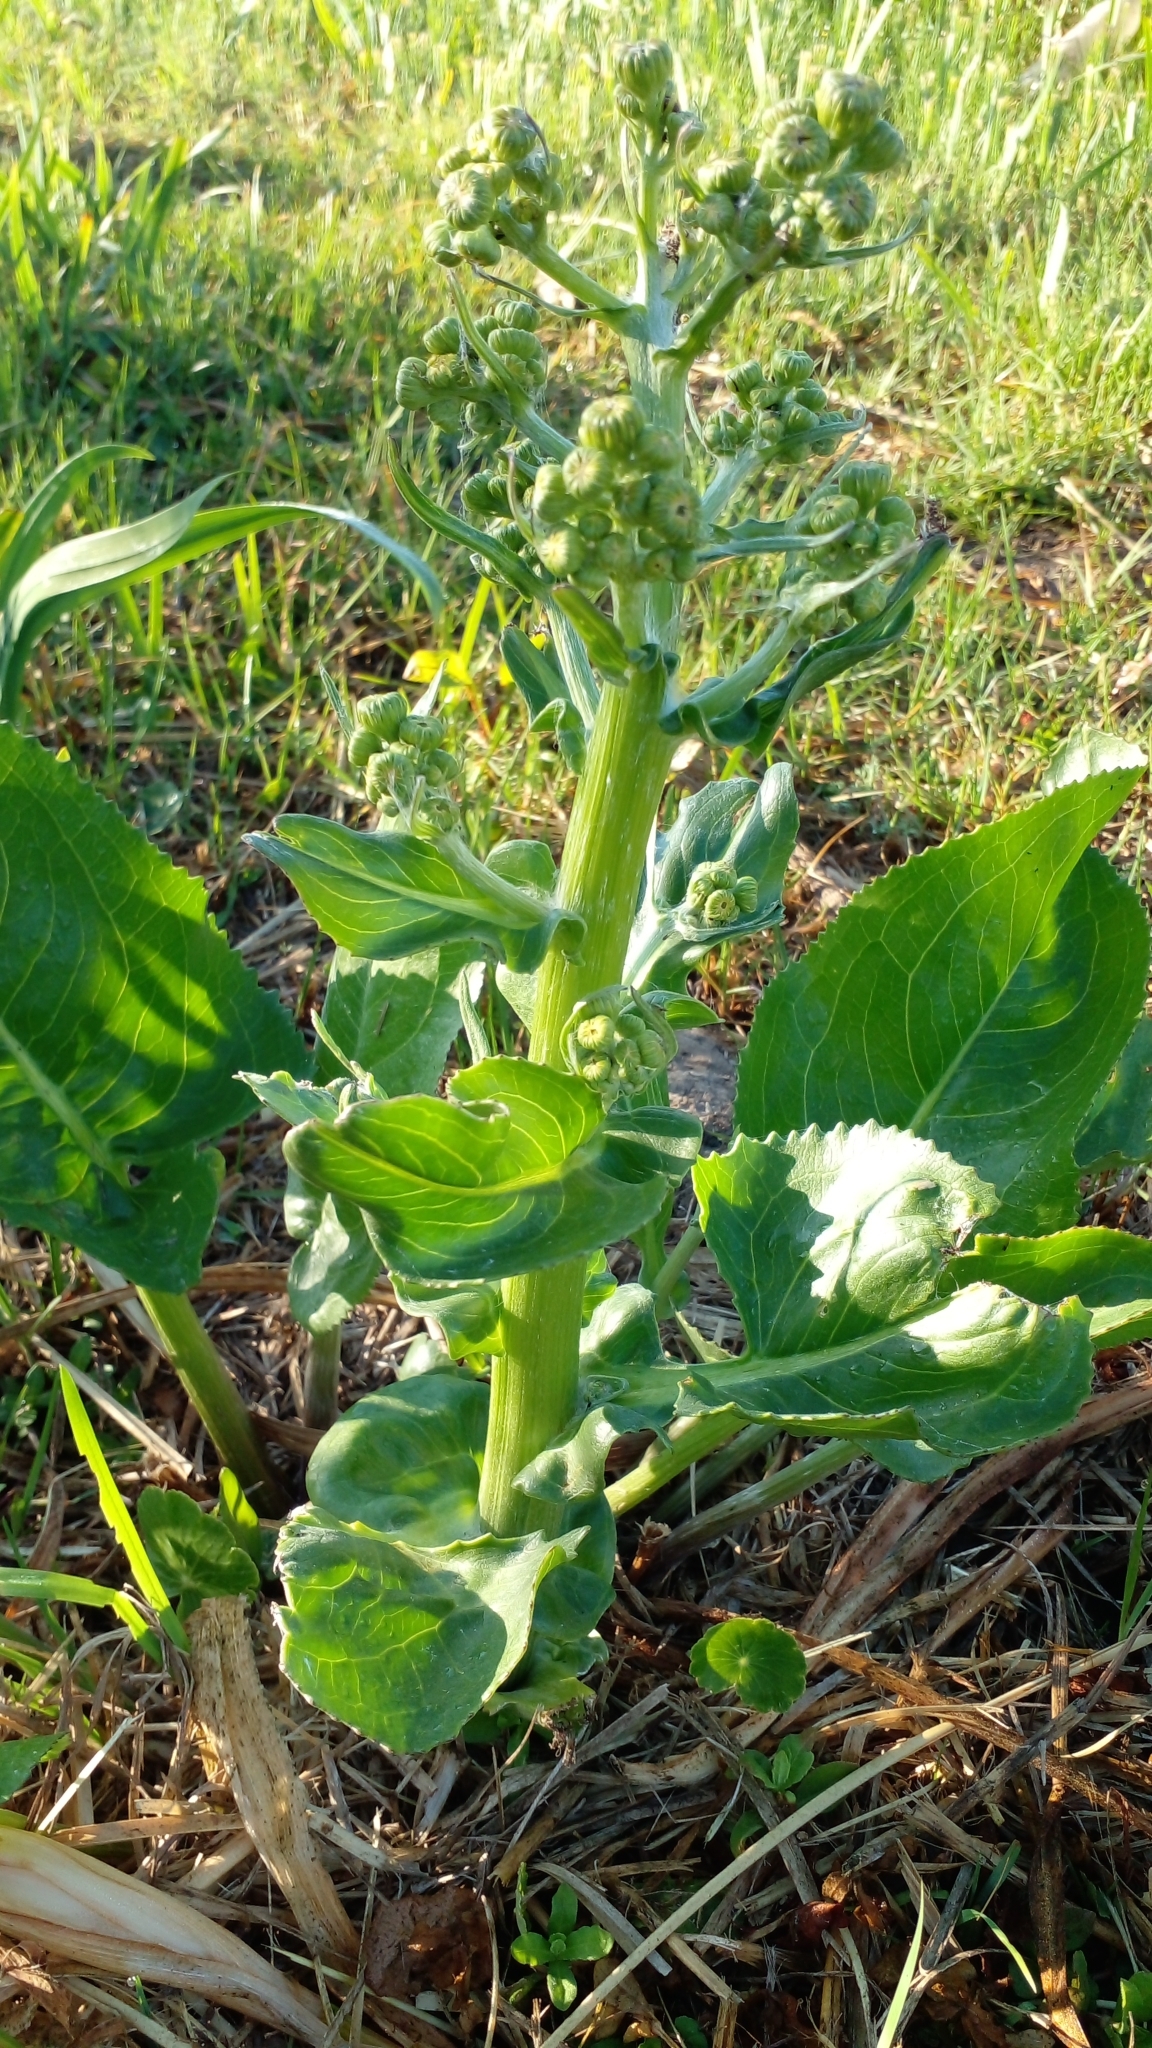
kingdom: Plantae
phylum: Tracheophyta
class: Magnoliopsida
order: Asterales
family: Asteraceae
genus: Senecio
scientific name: Senecio bonariensis
